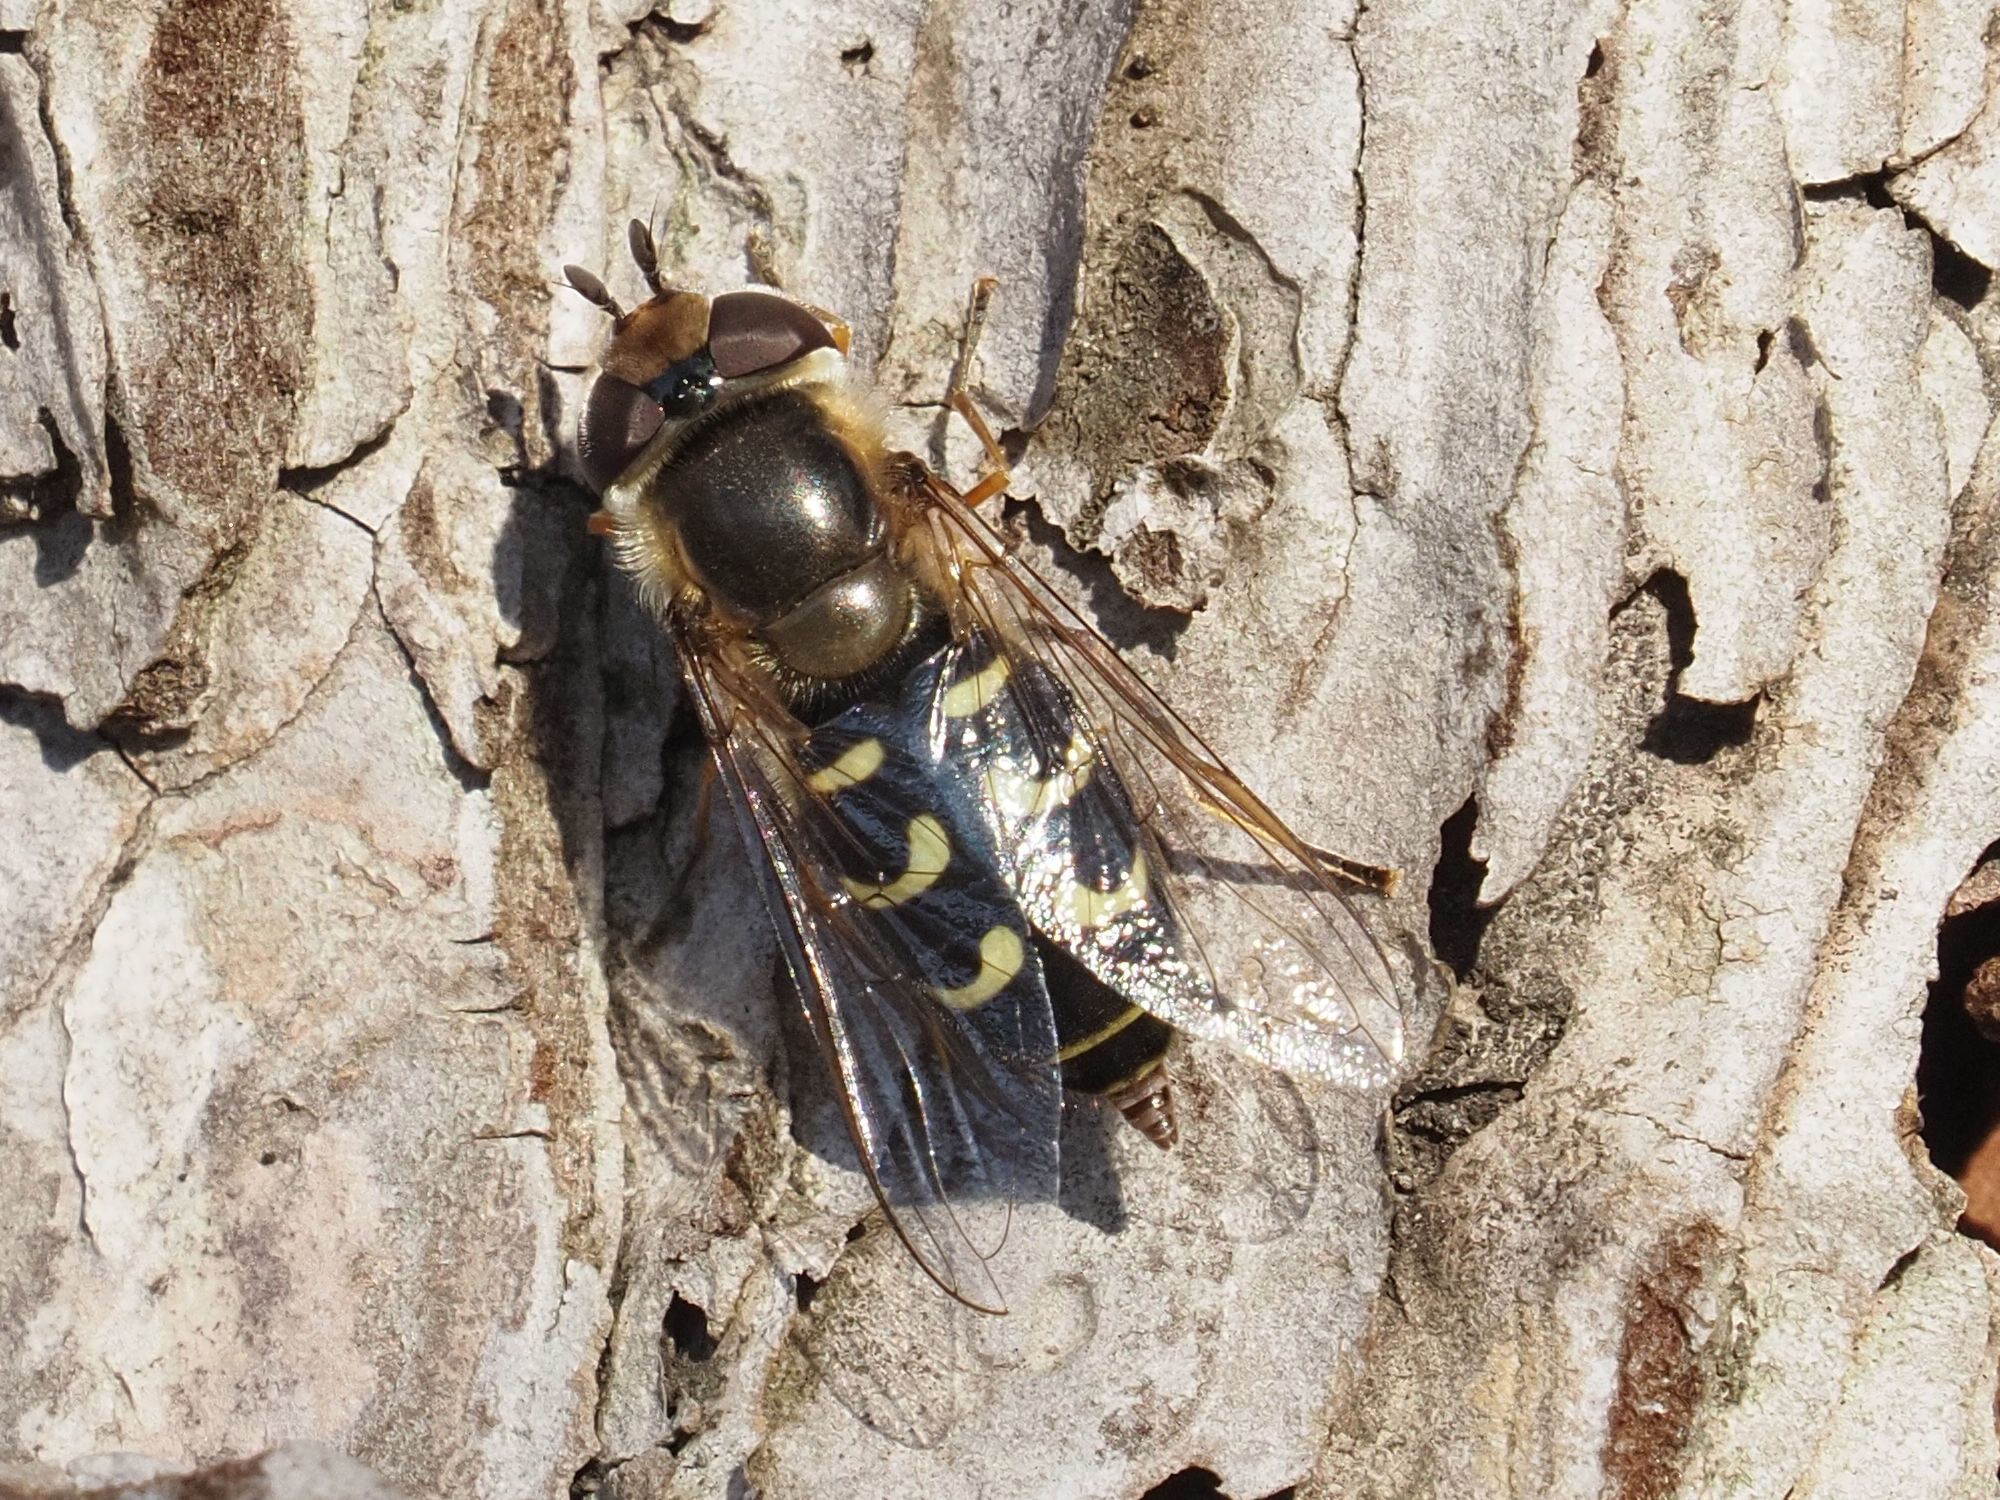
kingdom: Animalia
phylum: Arthropoda
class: Insecta
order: Diptera
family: Syrphidae
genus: Scaeva
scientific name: Scaeva selenitica
